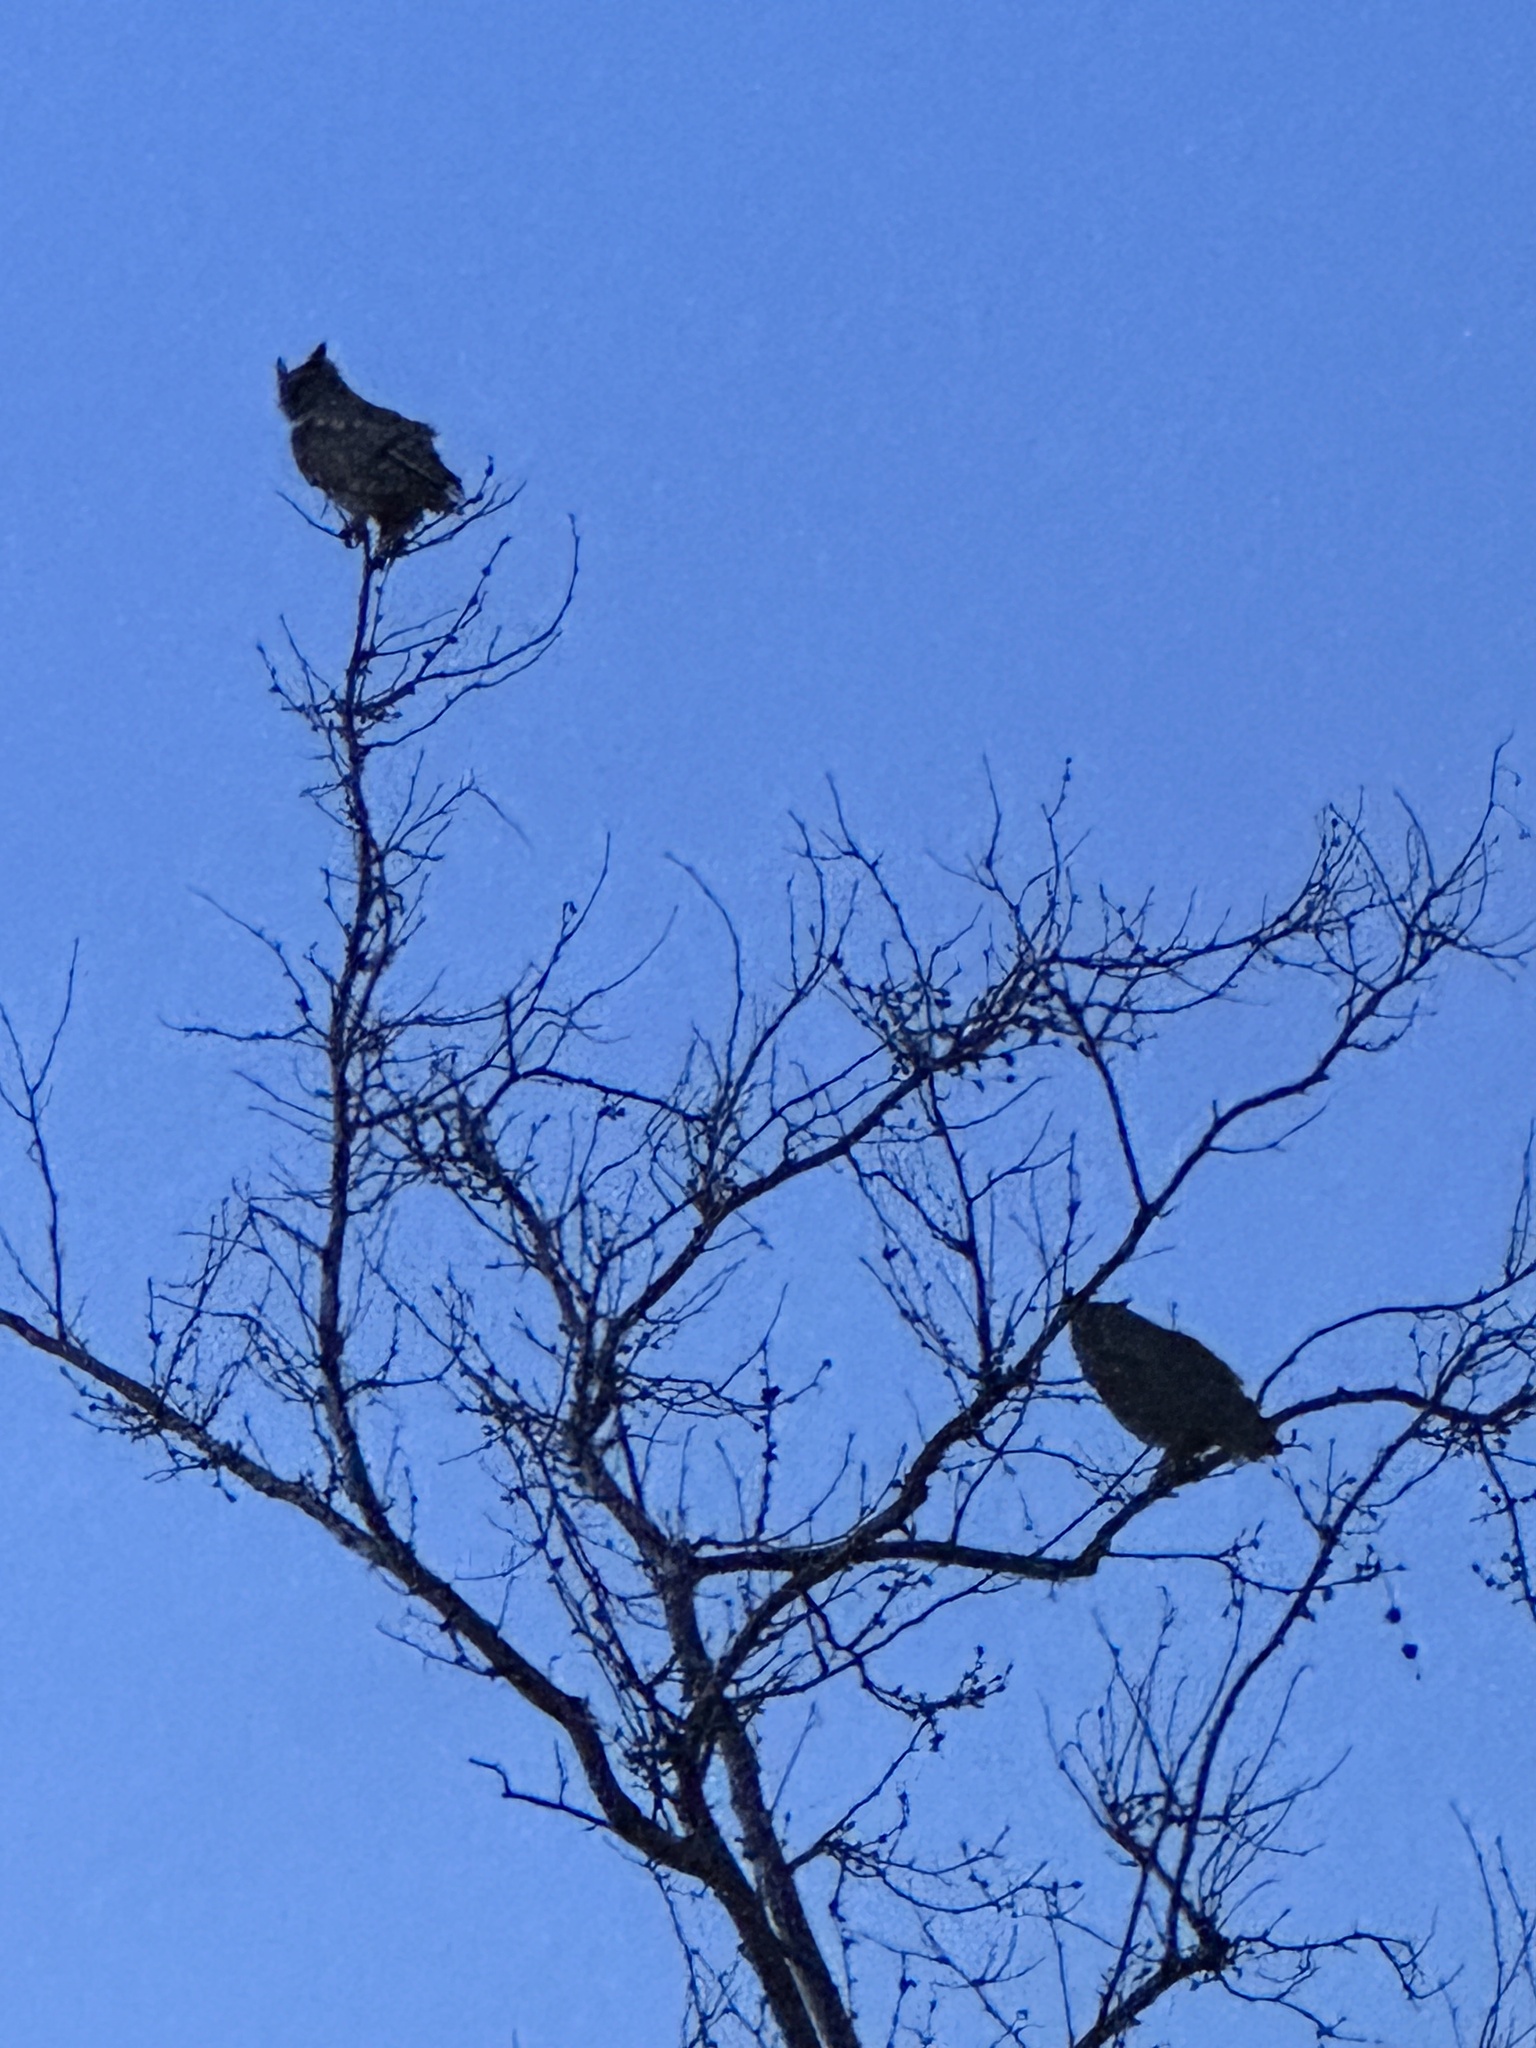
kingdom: Animalia
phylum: Chordata
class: Aves
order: Strigiformes
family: Strigidae
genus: Bubo
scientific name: Bubo virginianus
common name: Great horned owl
